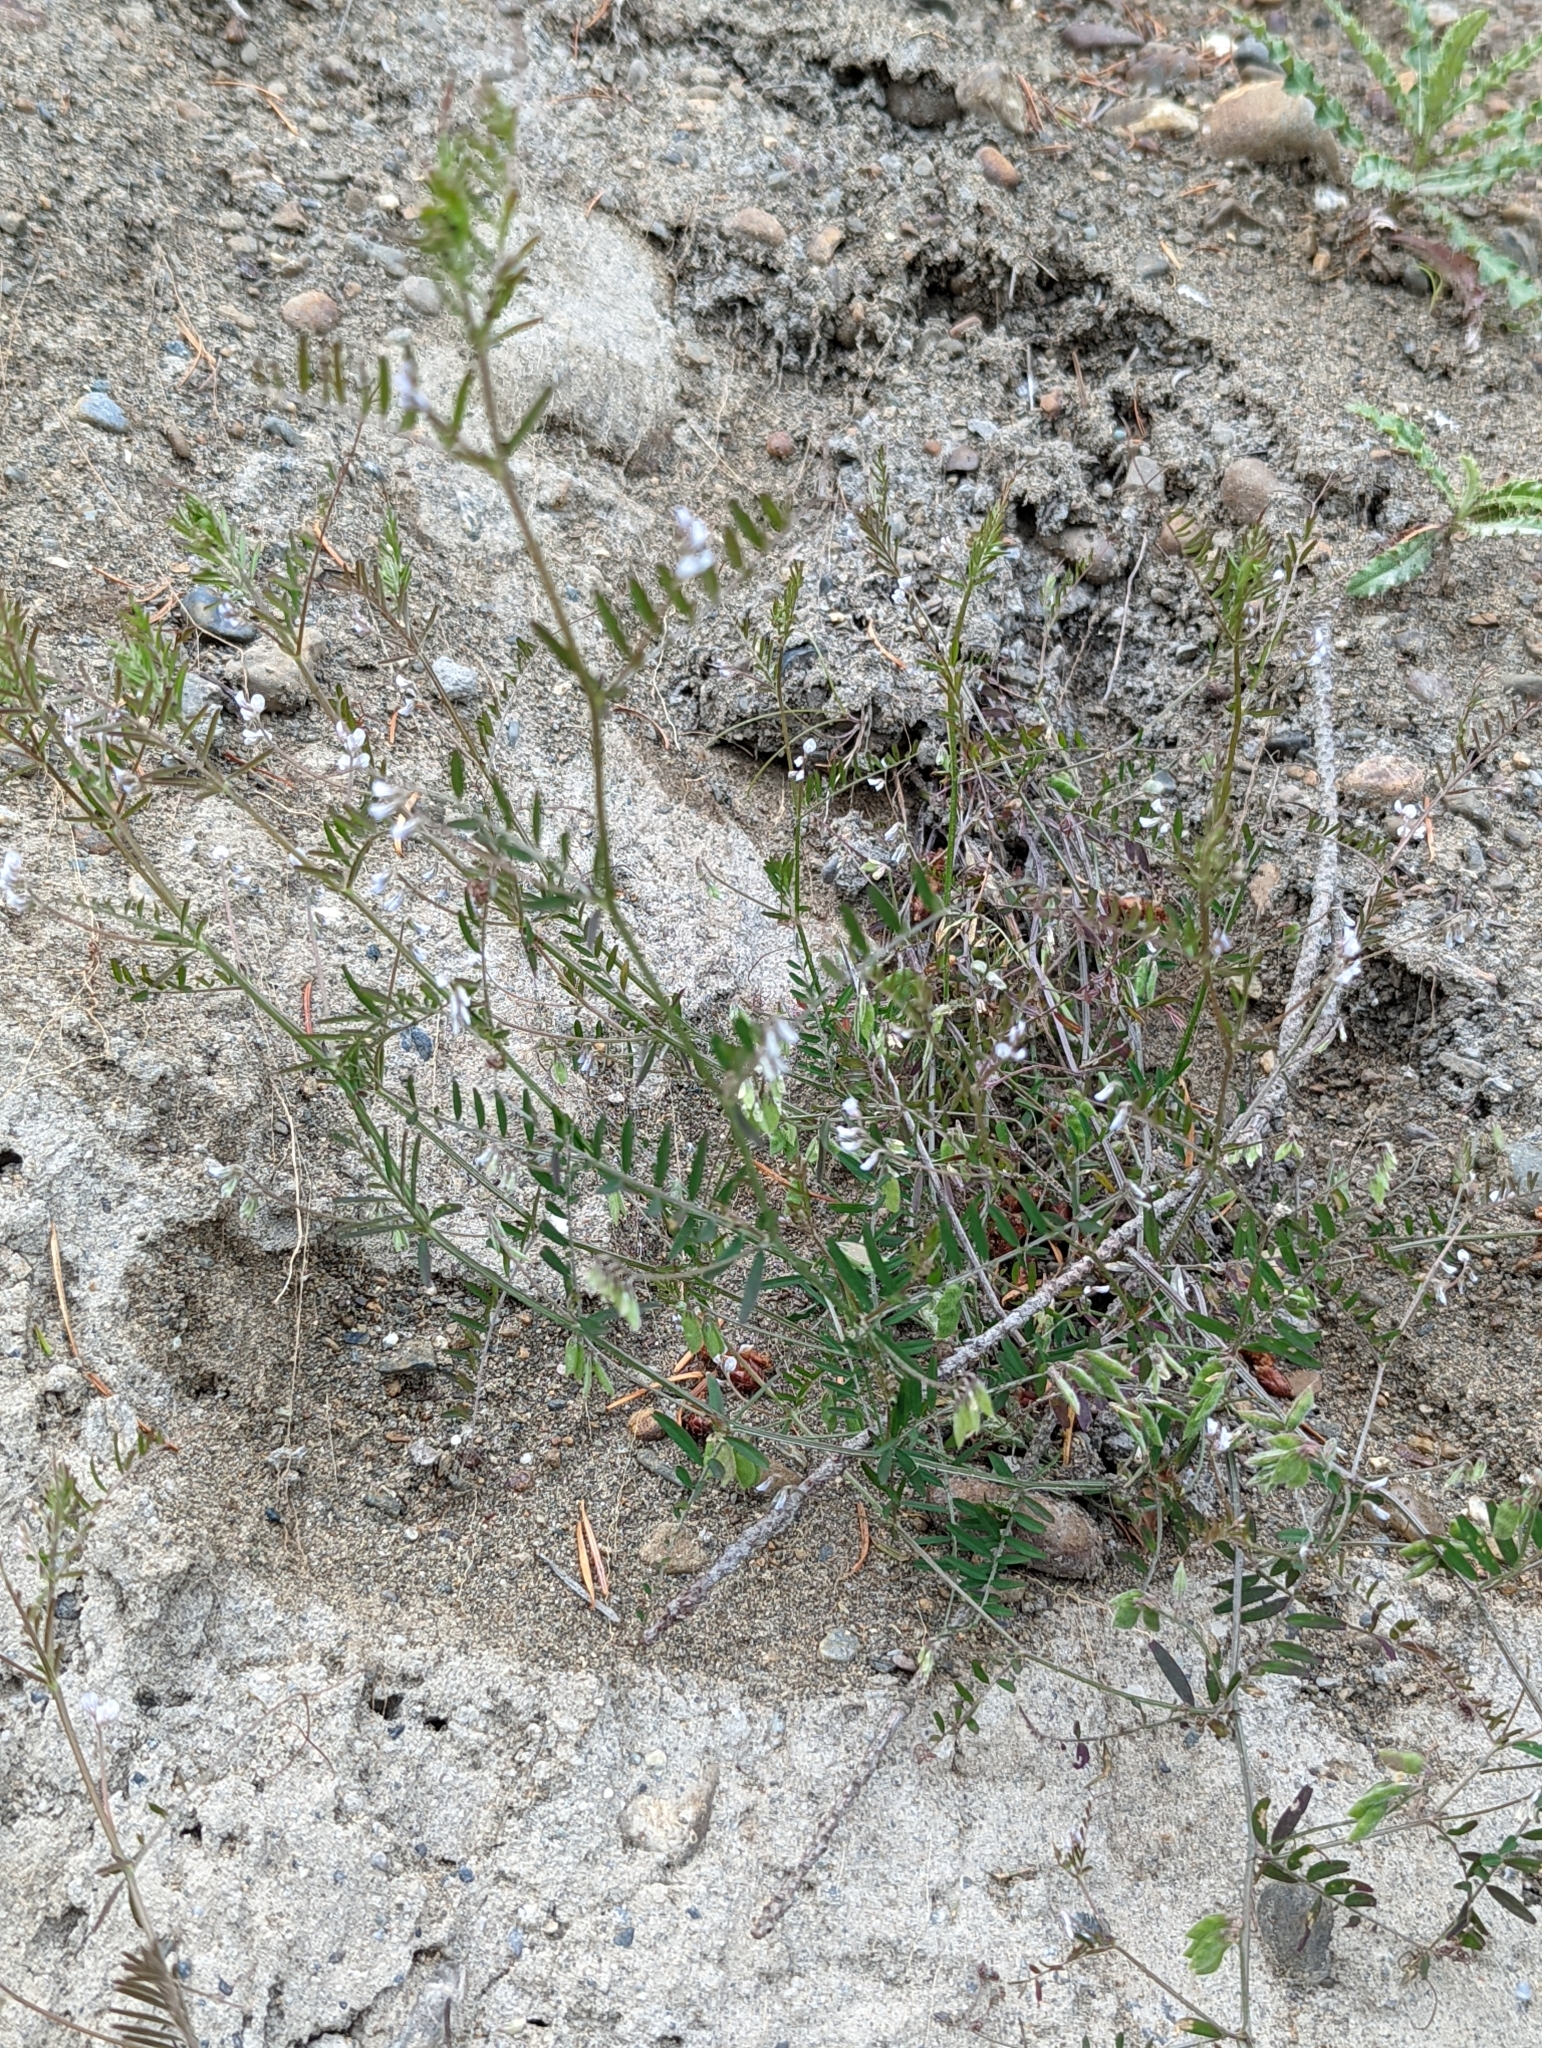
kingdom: Plantae
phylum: Tracheophyta
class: Magnoliopsida
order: Fabales
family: Fabaceae
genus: Vicia
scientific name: Vicia hirsuta
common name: Tiny vetch
